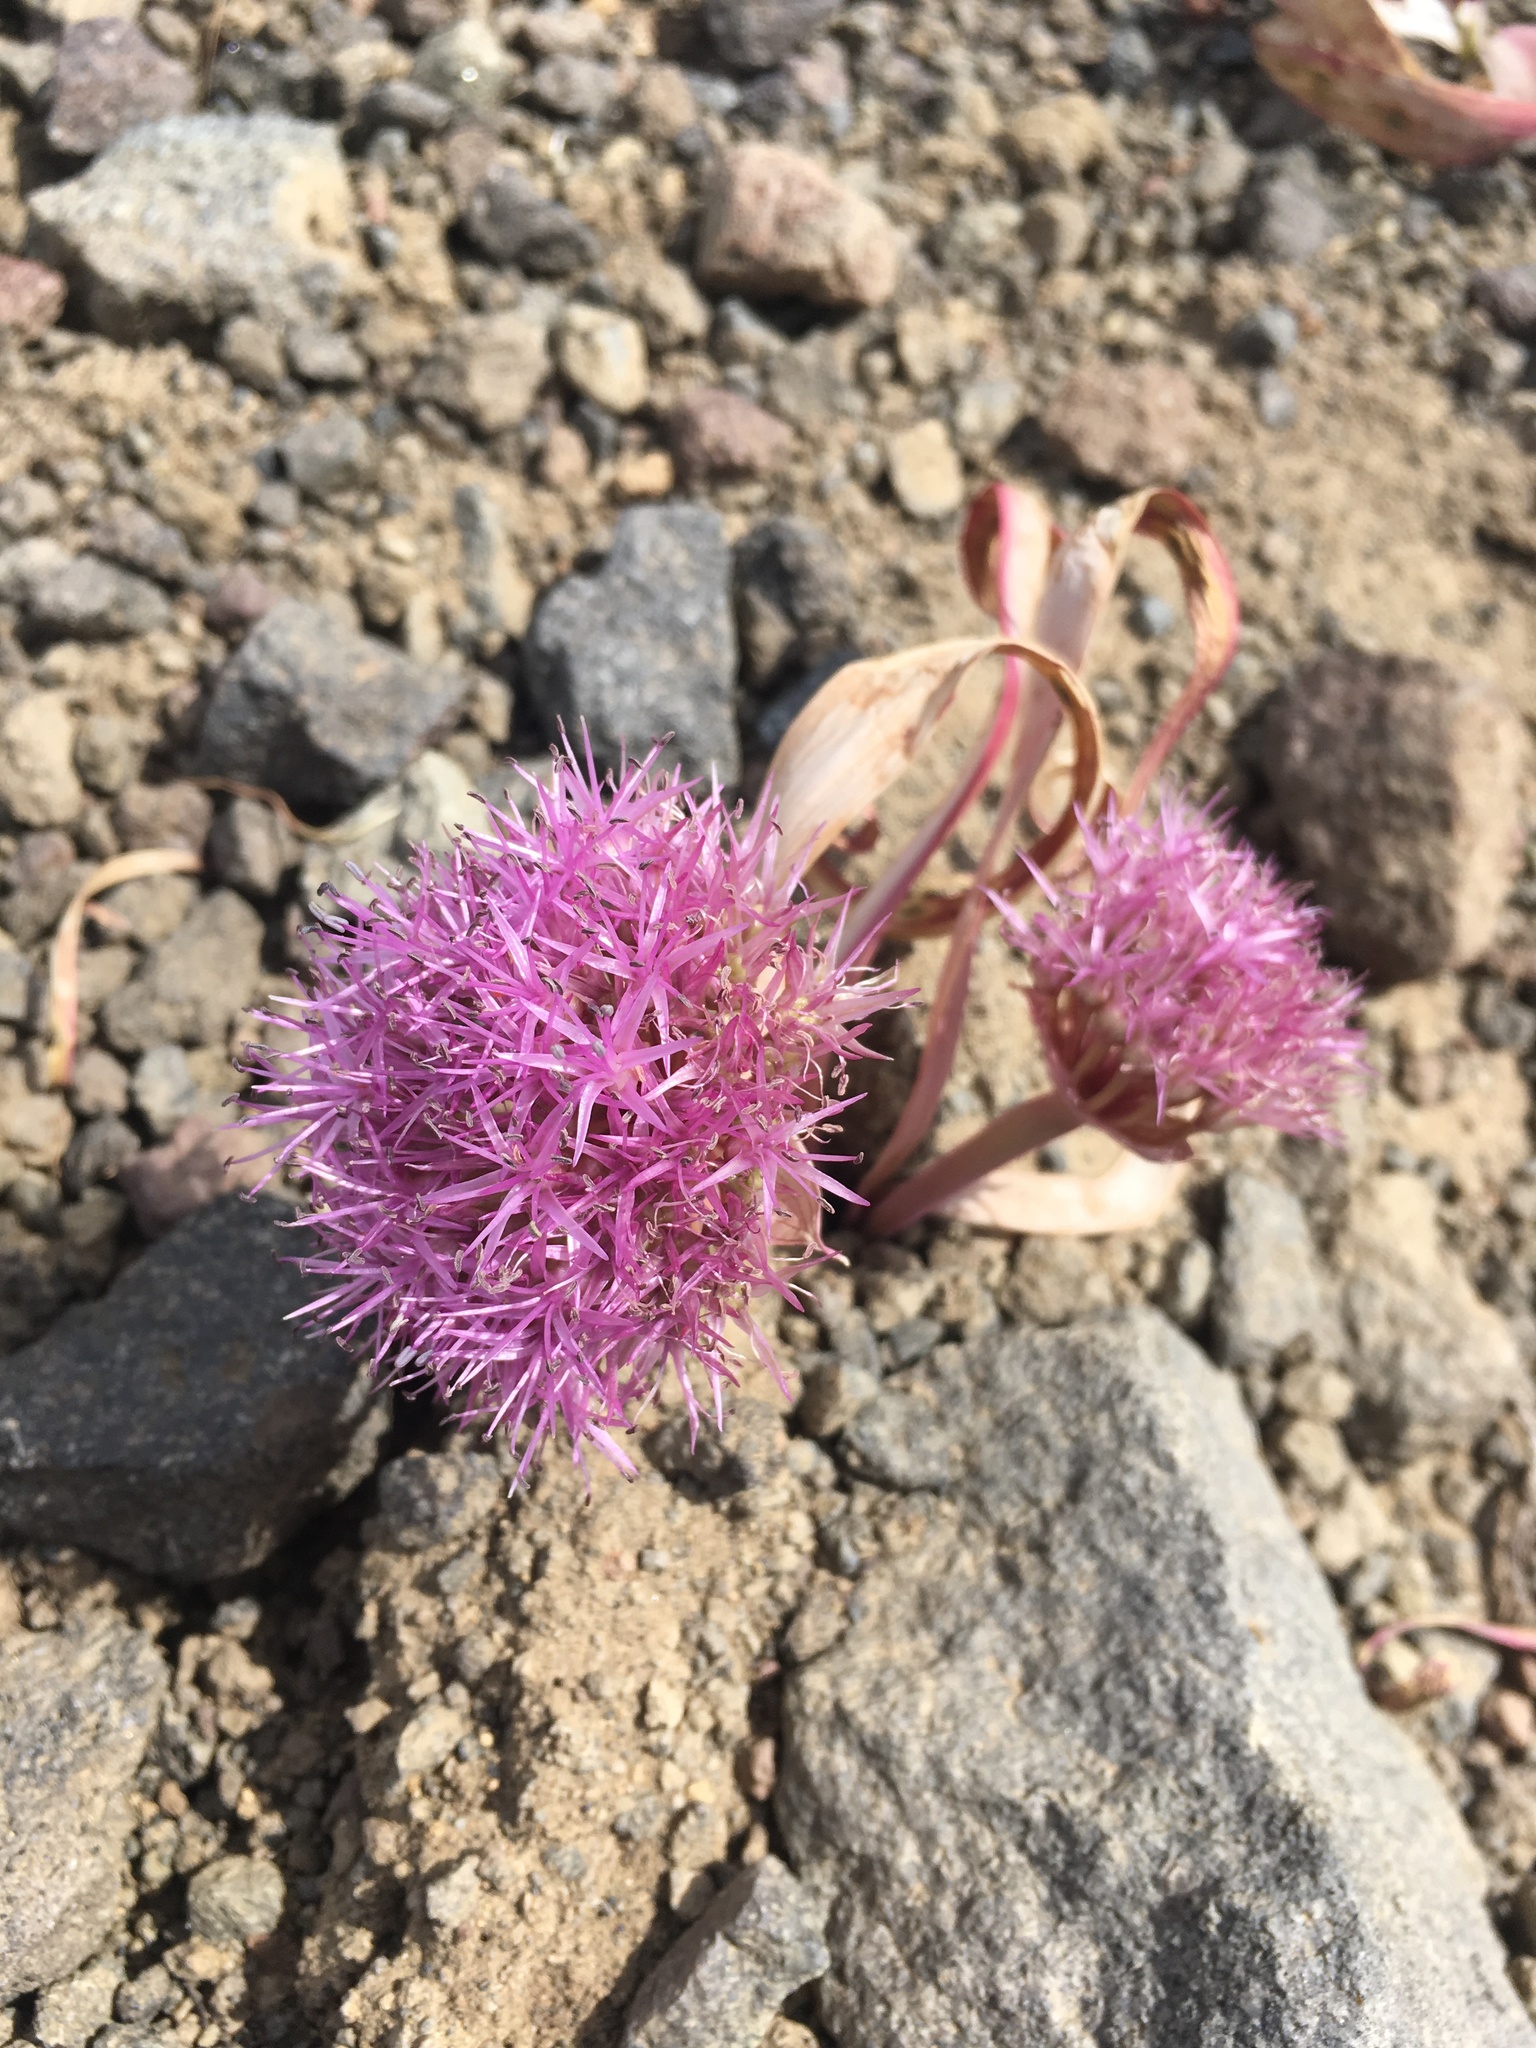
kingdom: Plantae
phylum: Tracheophyta
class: Liliopsida
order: Asparagales
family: Amaryllidaceae
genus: Allium
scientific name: Allium platycaule
